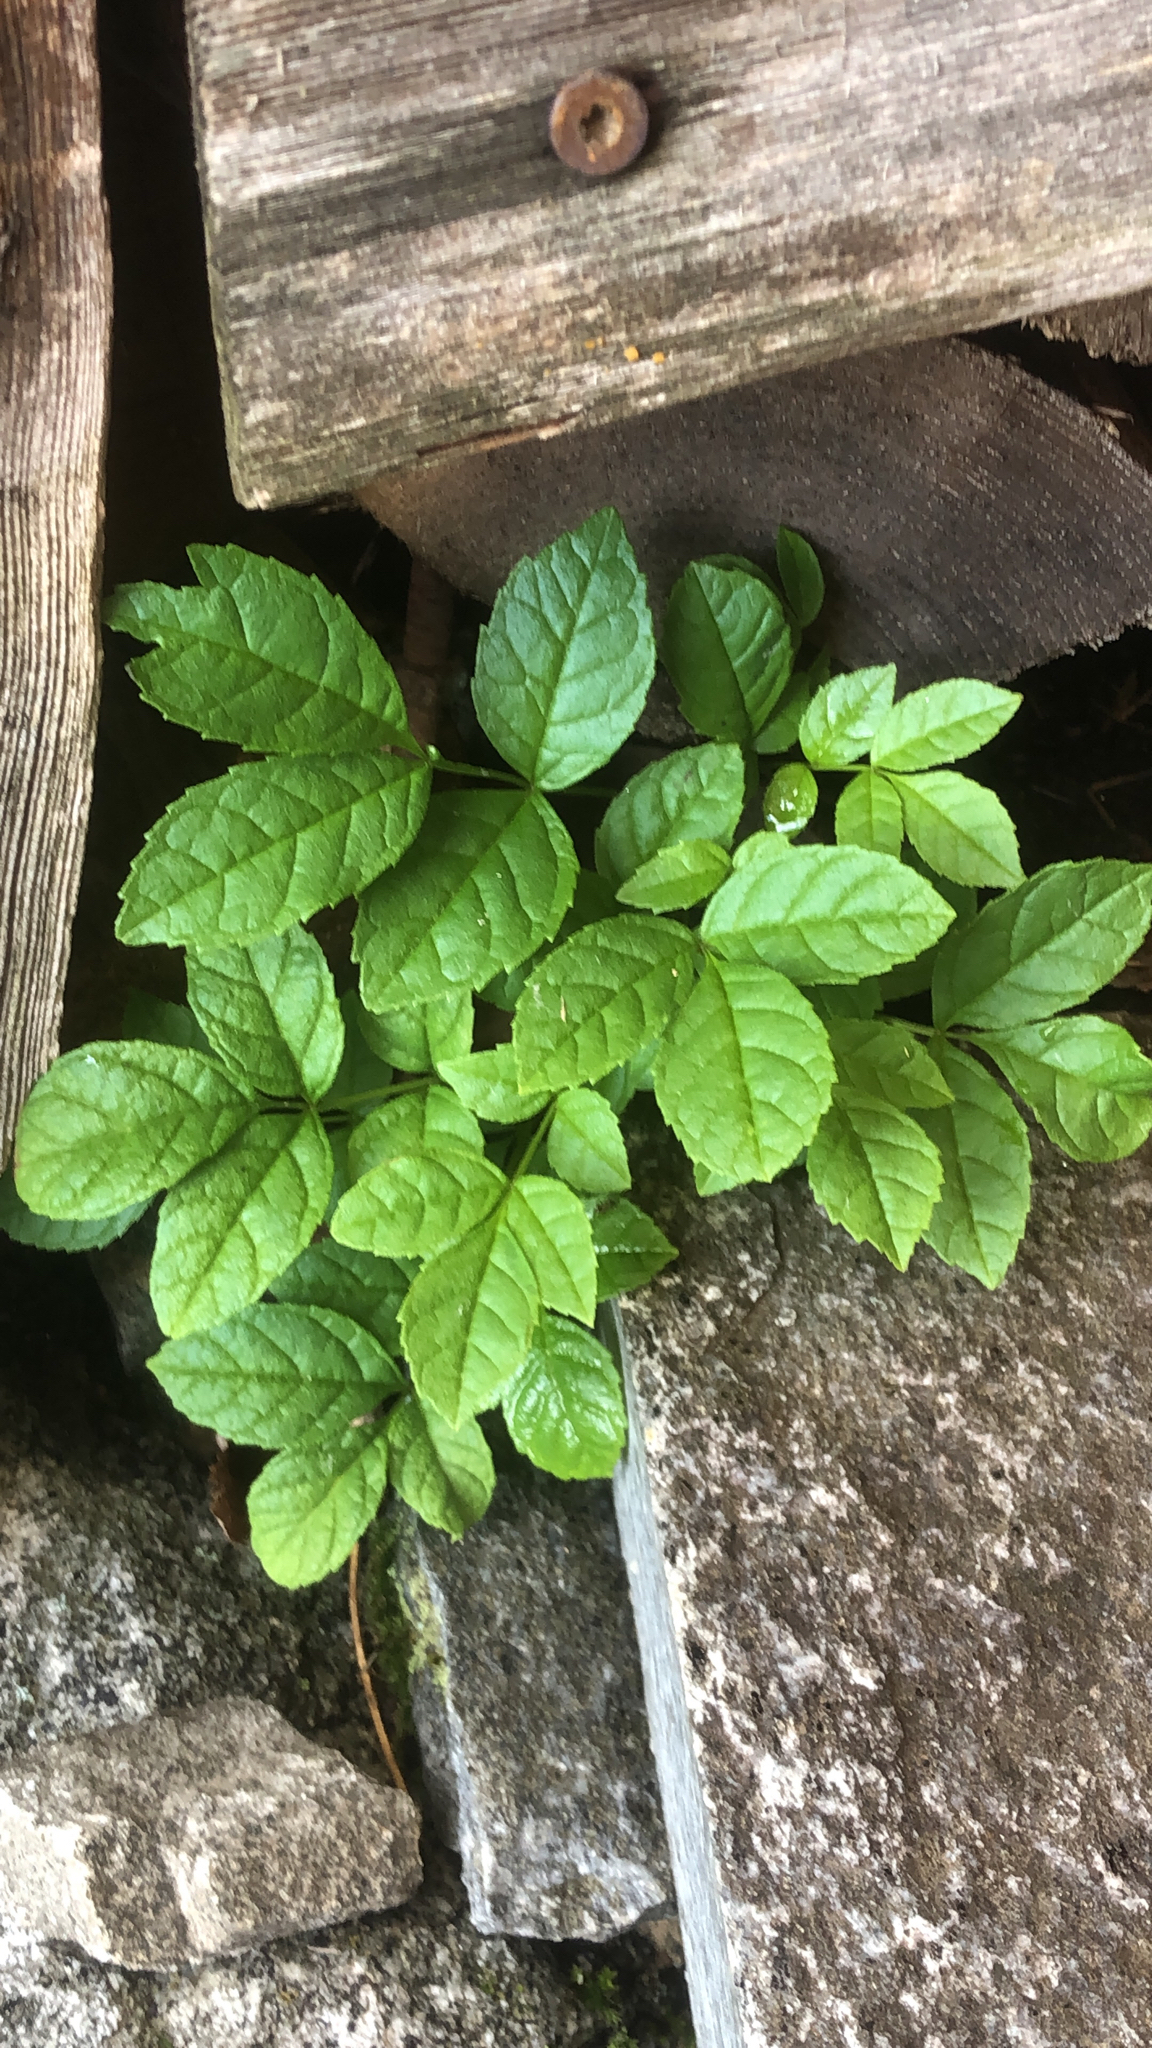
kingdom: Plantae
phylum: Tracheophyta
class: Magnoliopsida
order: Lamiales
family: Oleaceae
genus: Fraxinus
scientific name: Fraxinus excelsior
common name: European ash
